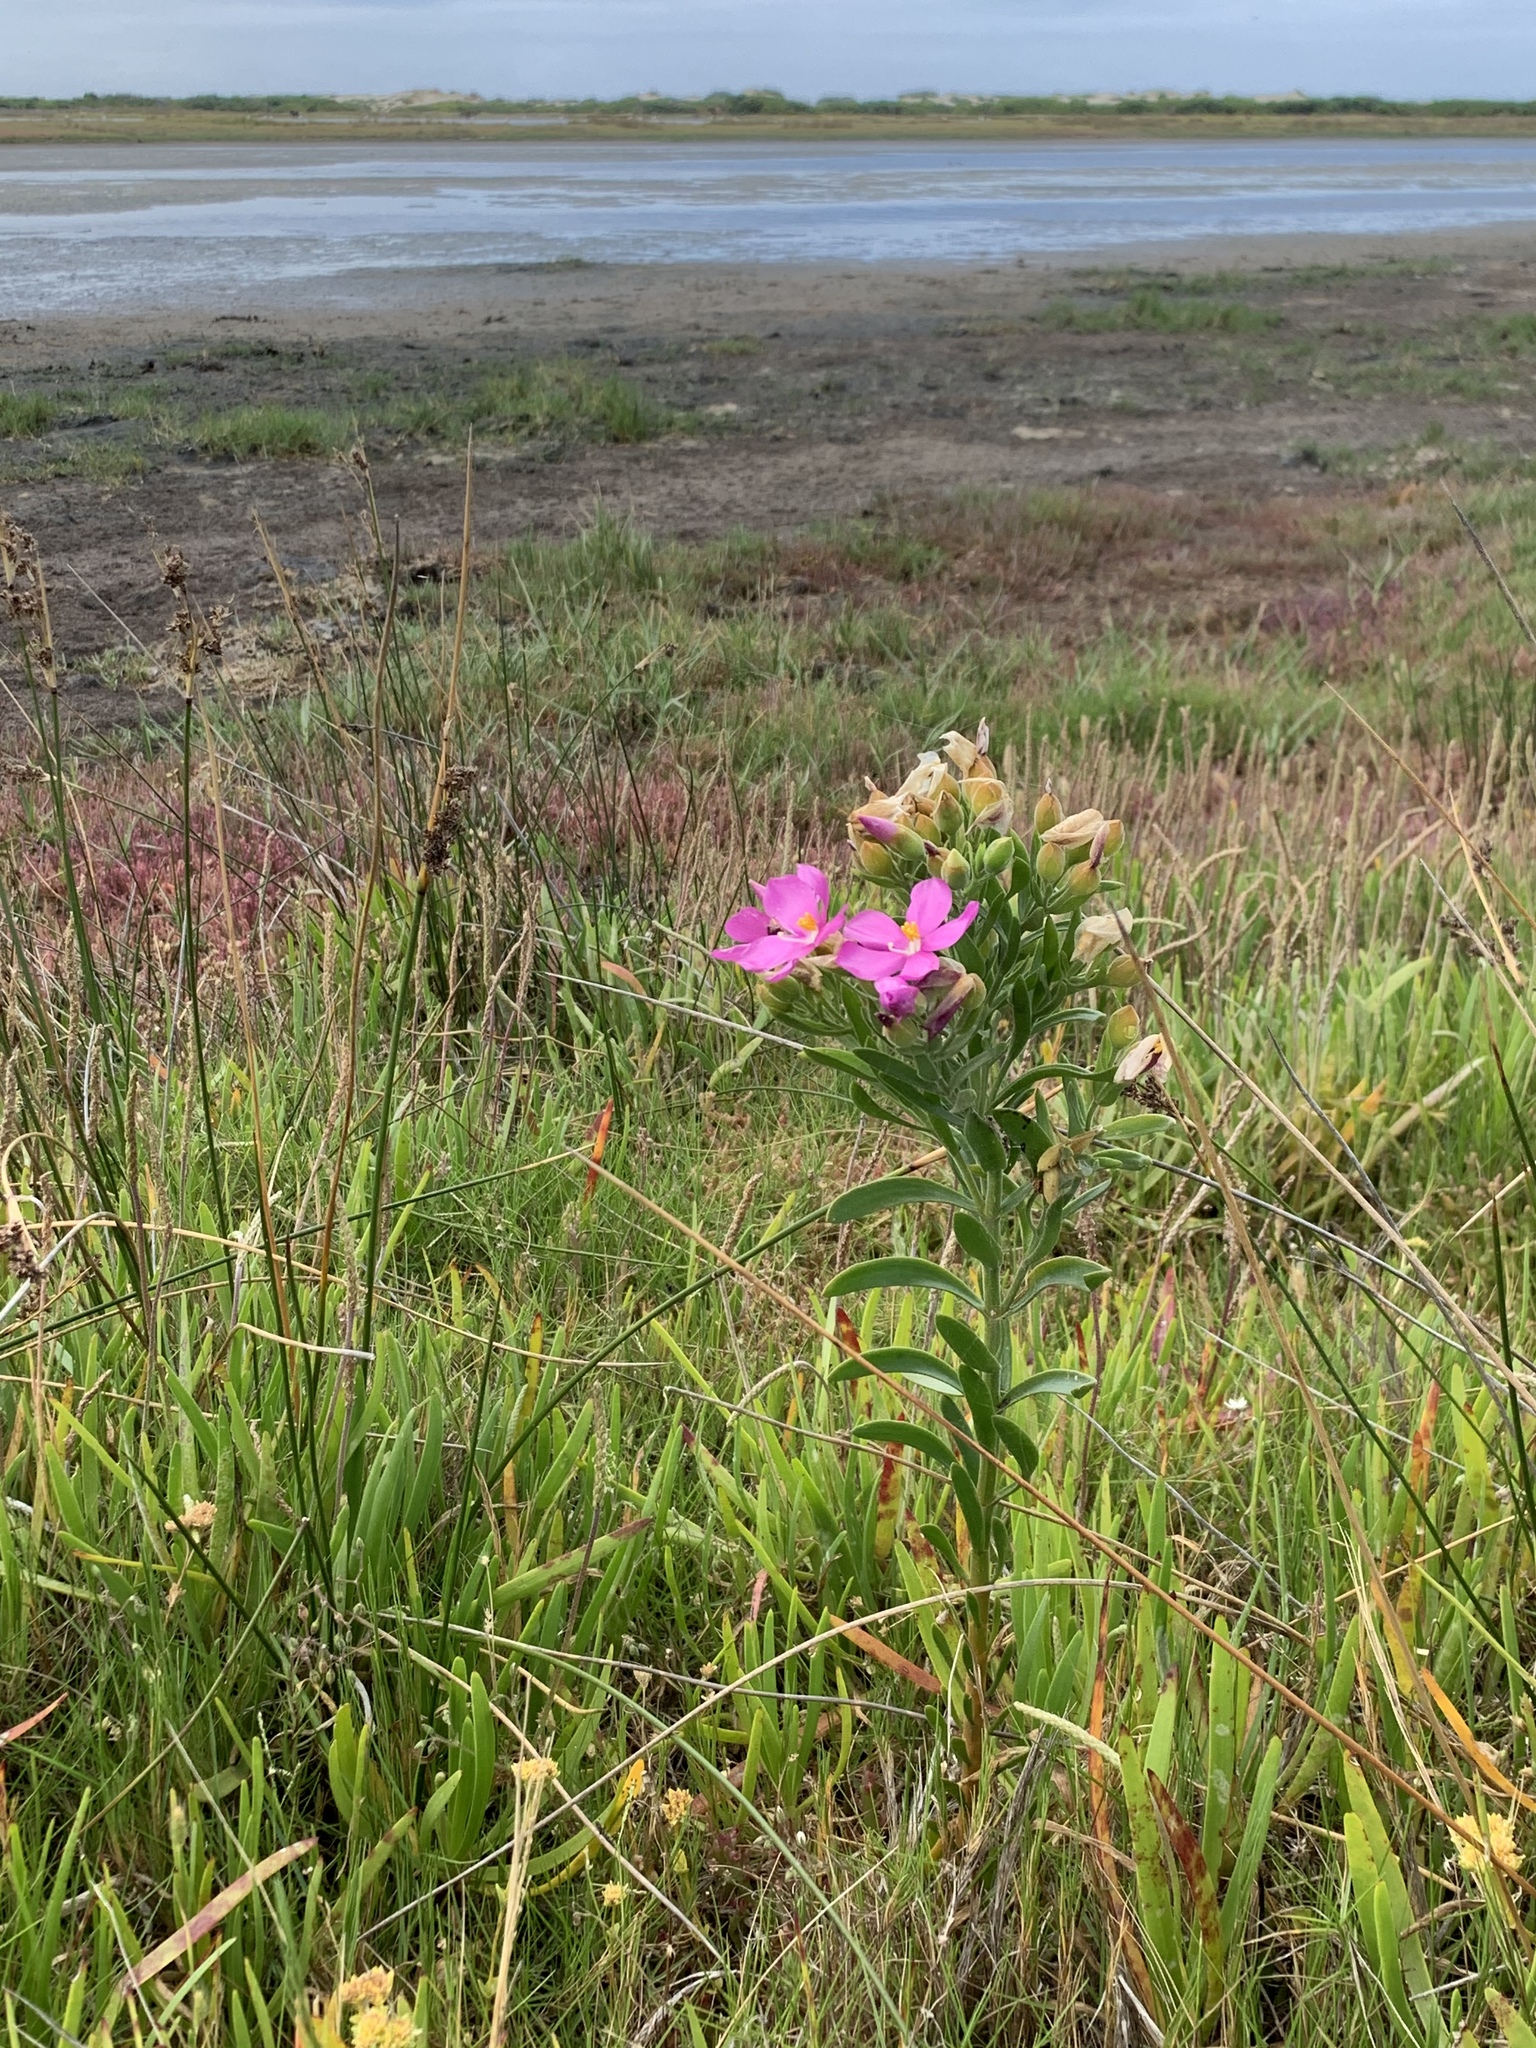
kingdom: Plantae
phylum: Tracheophyta
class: Magnoliopsida
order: Gentianales
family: Gentianaceae
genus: Orphium
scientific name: Orphium frutescens
